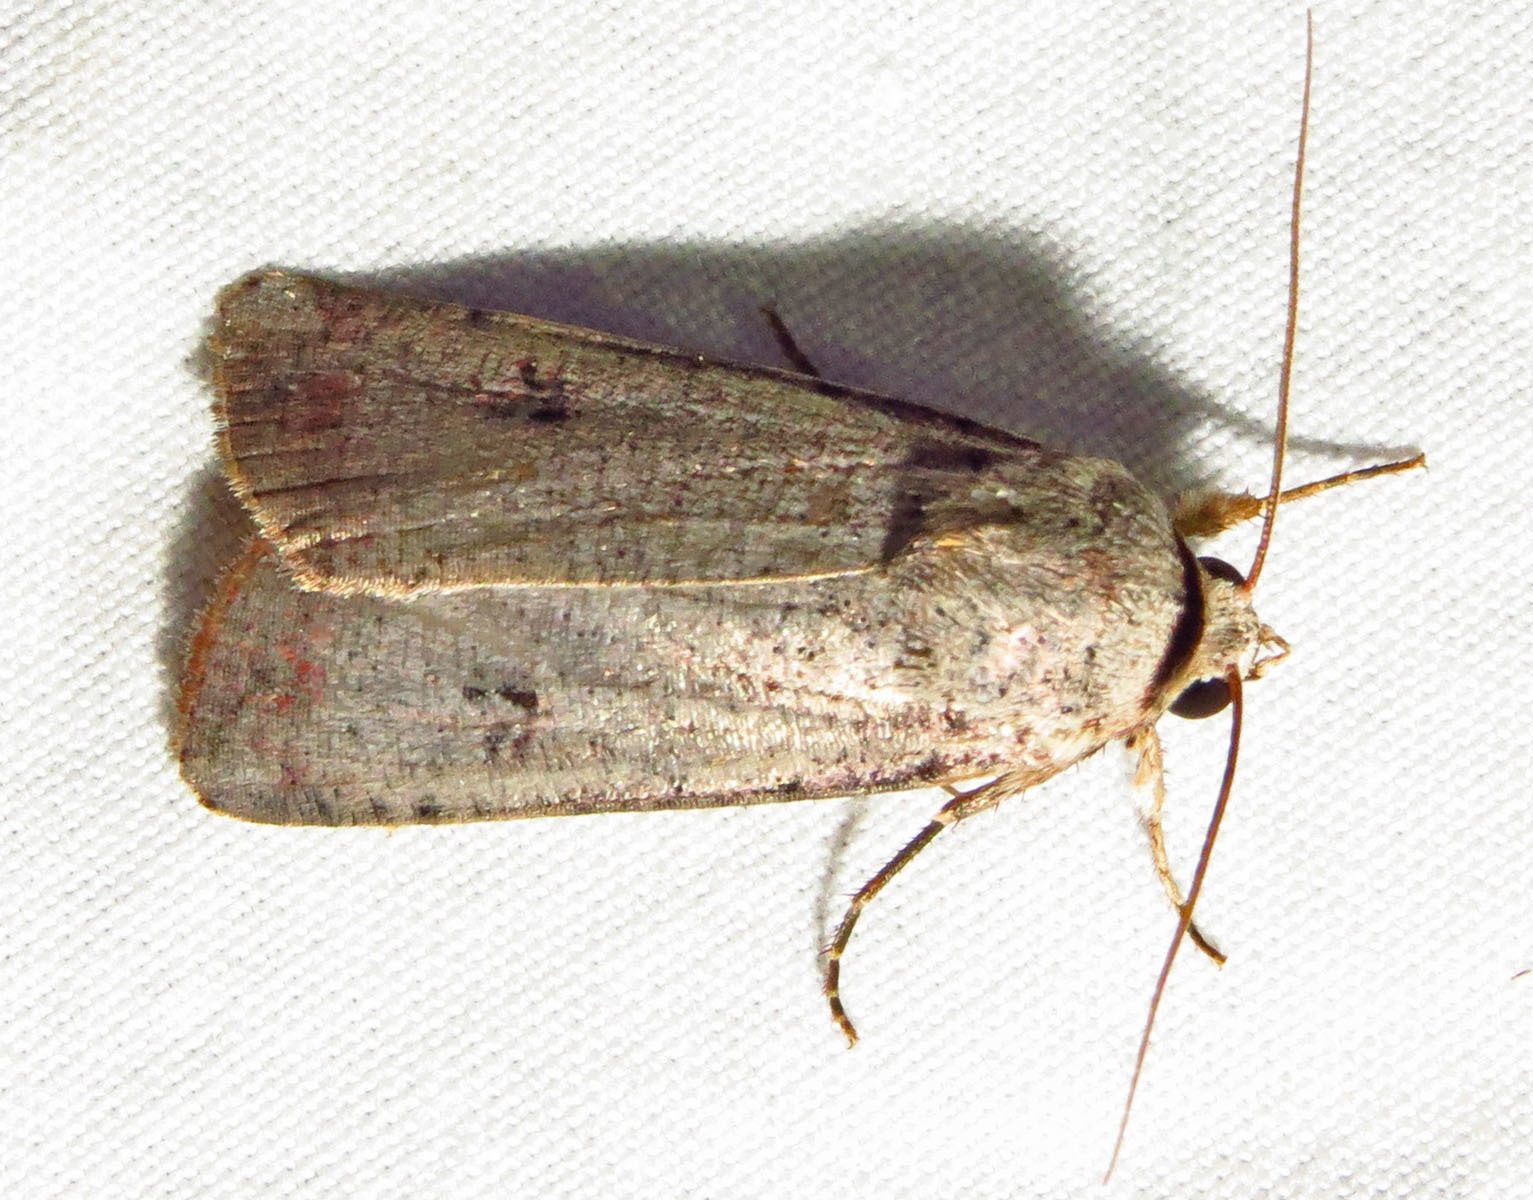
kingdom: Animalia
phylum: Arthropoda
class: Insecta
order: Lepidoptera
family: Noctuidae
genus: Anicla
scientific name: Anicla infecta
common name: Green cutworm
